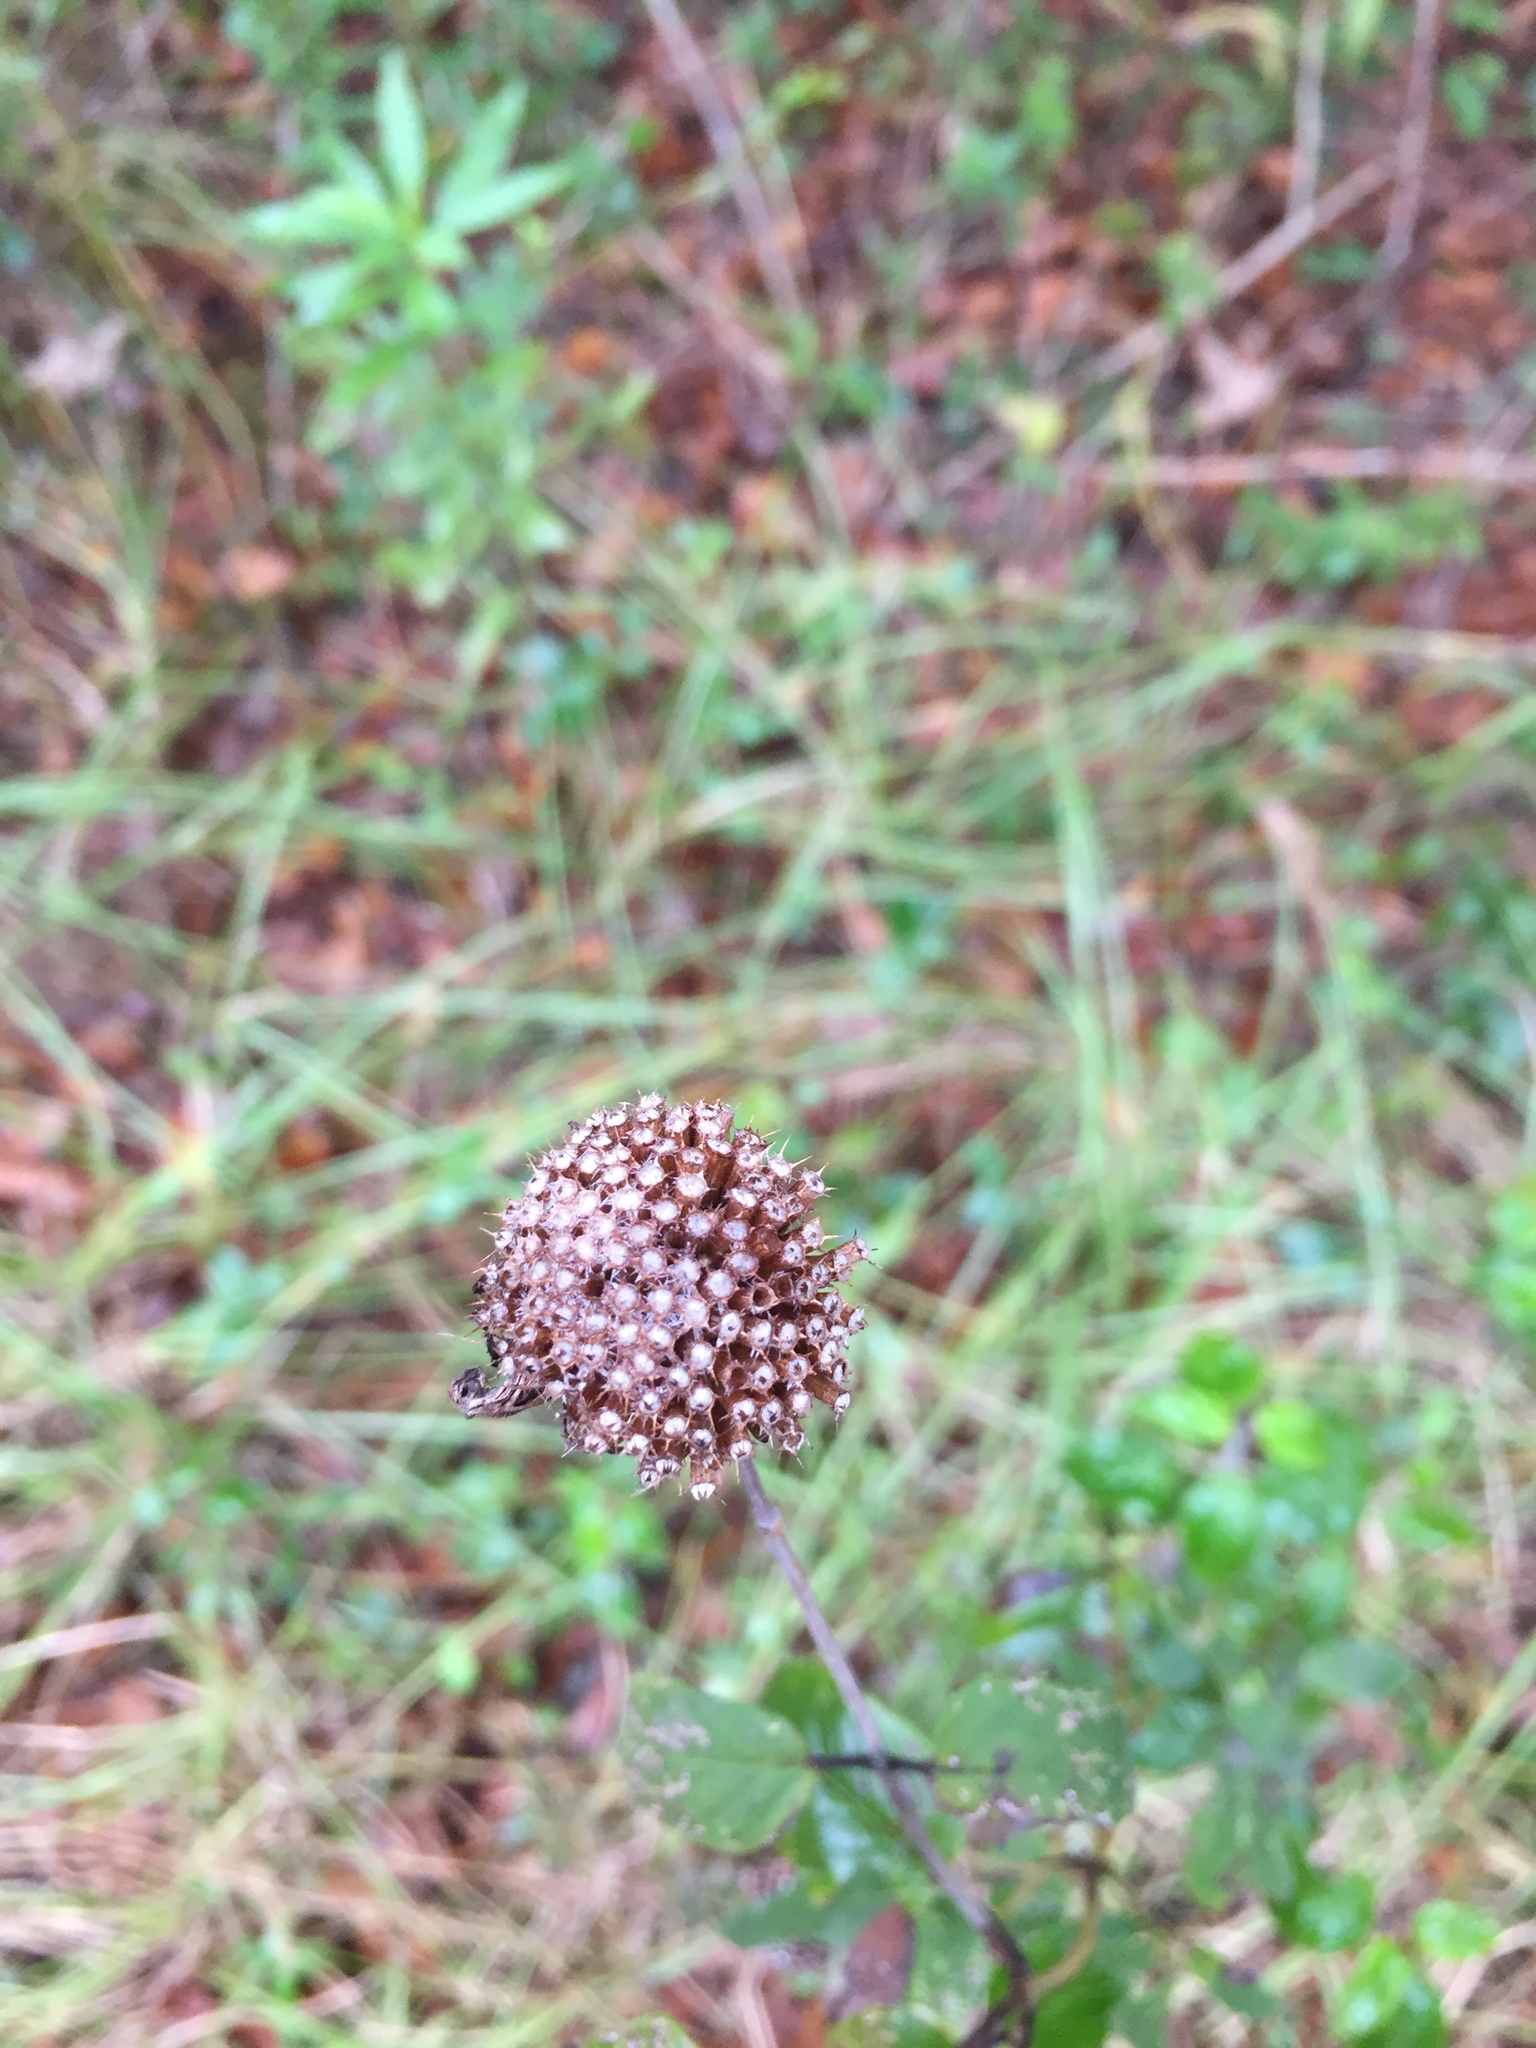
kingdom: Plantae
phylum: Tracheophyta
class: Magnoliopsida
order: Lamiales
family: Lamiaceae
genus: Monarda
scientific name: Monarda fistulosa
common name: Purple beebalm
